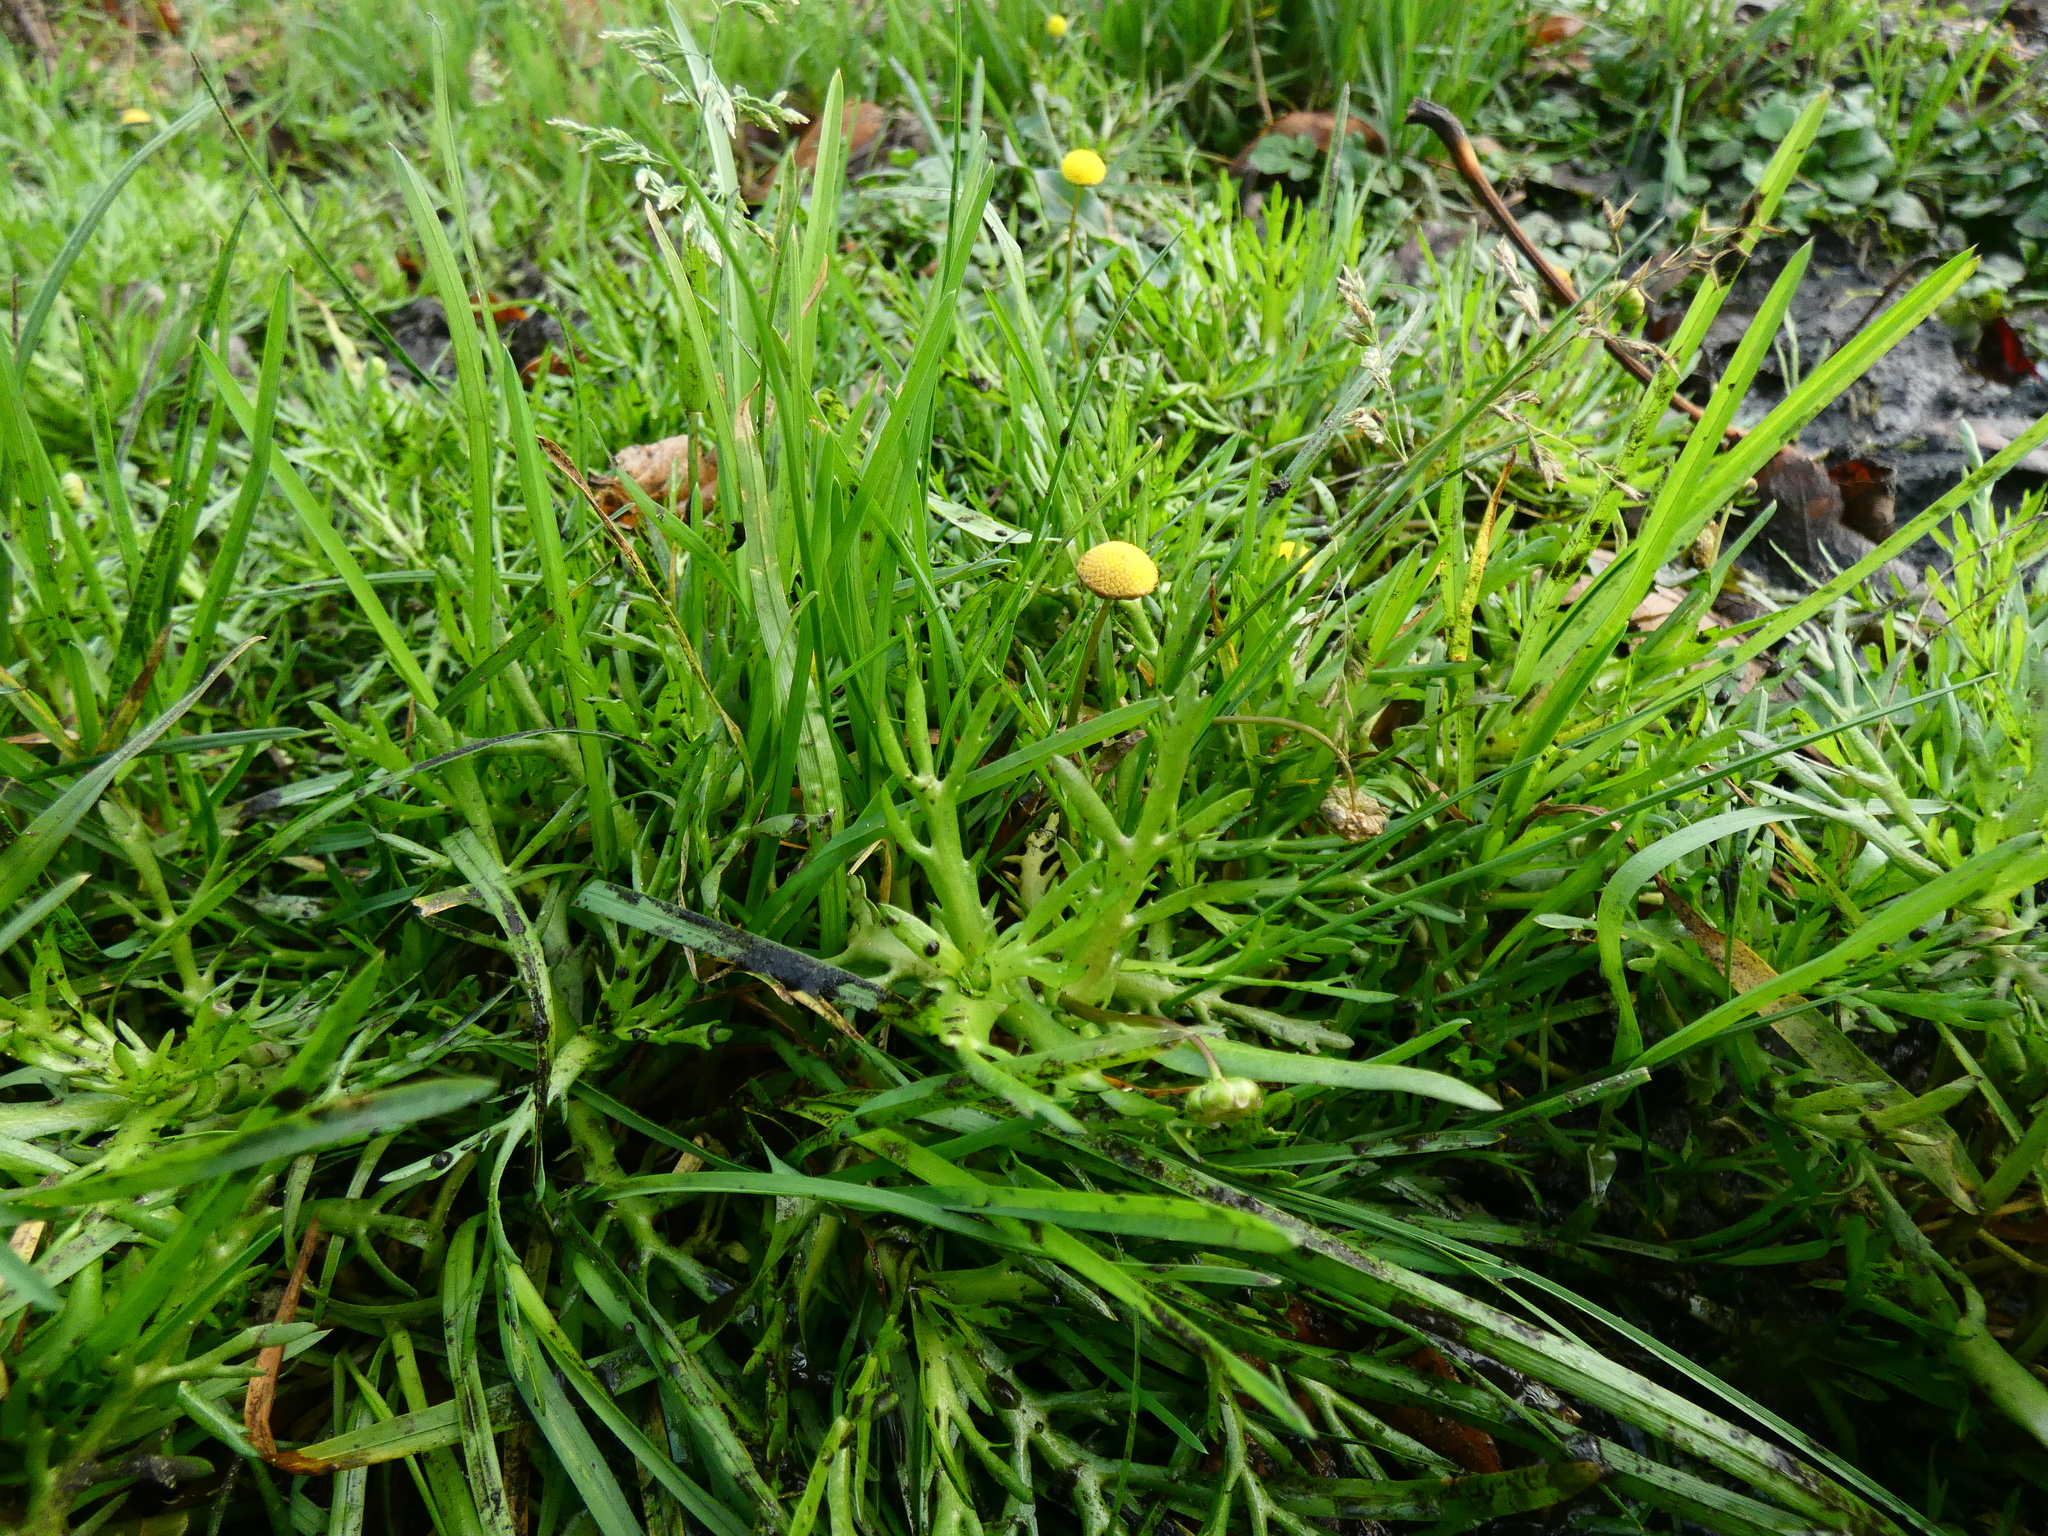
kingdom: Plantae
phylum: Tracheophyta
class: Magnoliopsida
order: Asterales
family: Asteraceae
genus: Cotula
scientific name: Cotula coronopifolia
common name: Buttonweed
